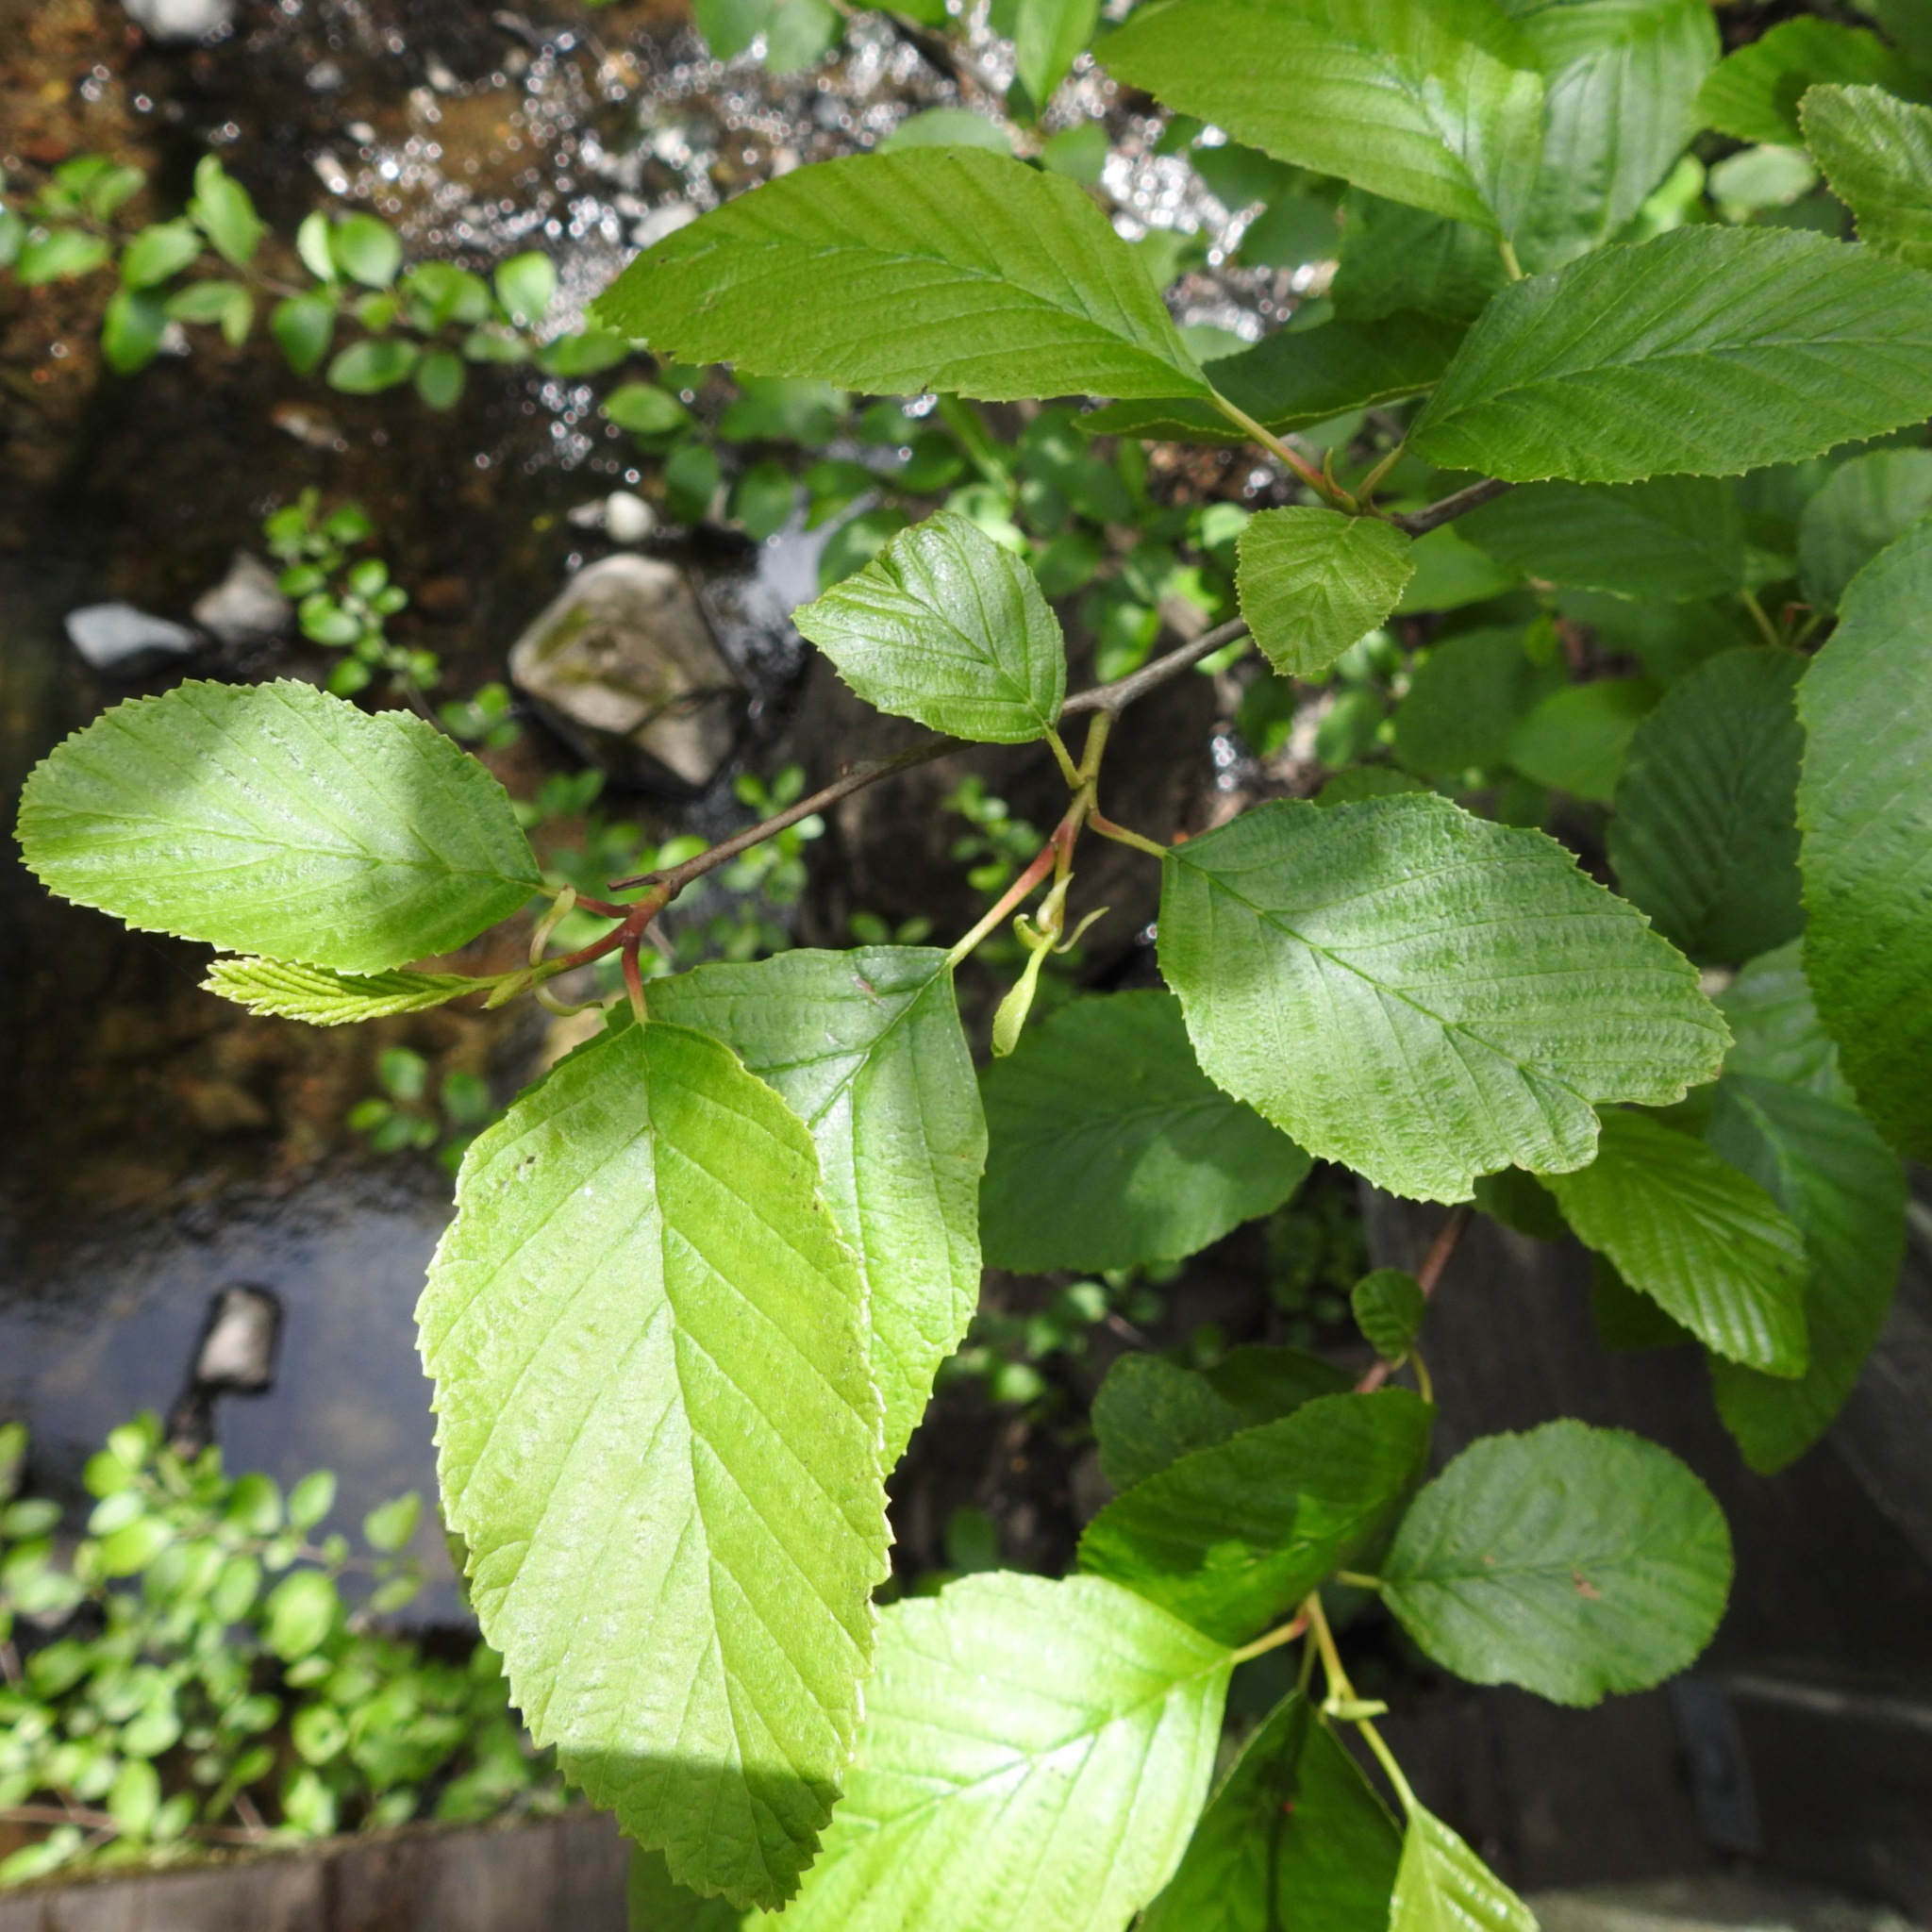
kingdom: Plantae
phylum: Tracheophyta
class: Magnoliopsida
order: Fagales
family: Betulaceae
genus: Alnus
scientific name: Alnus rhombifolia
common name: California alder
